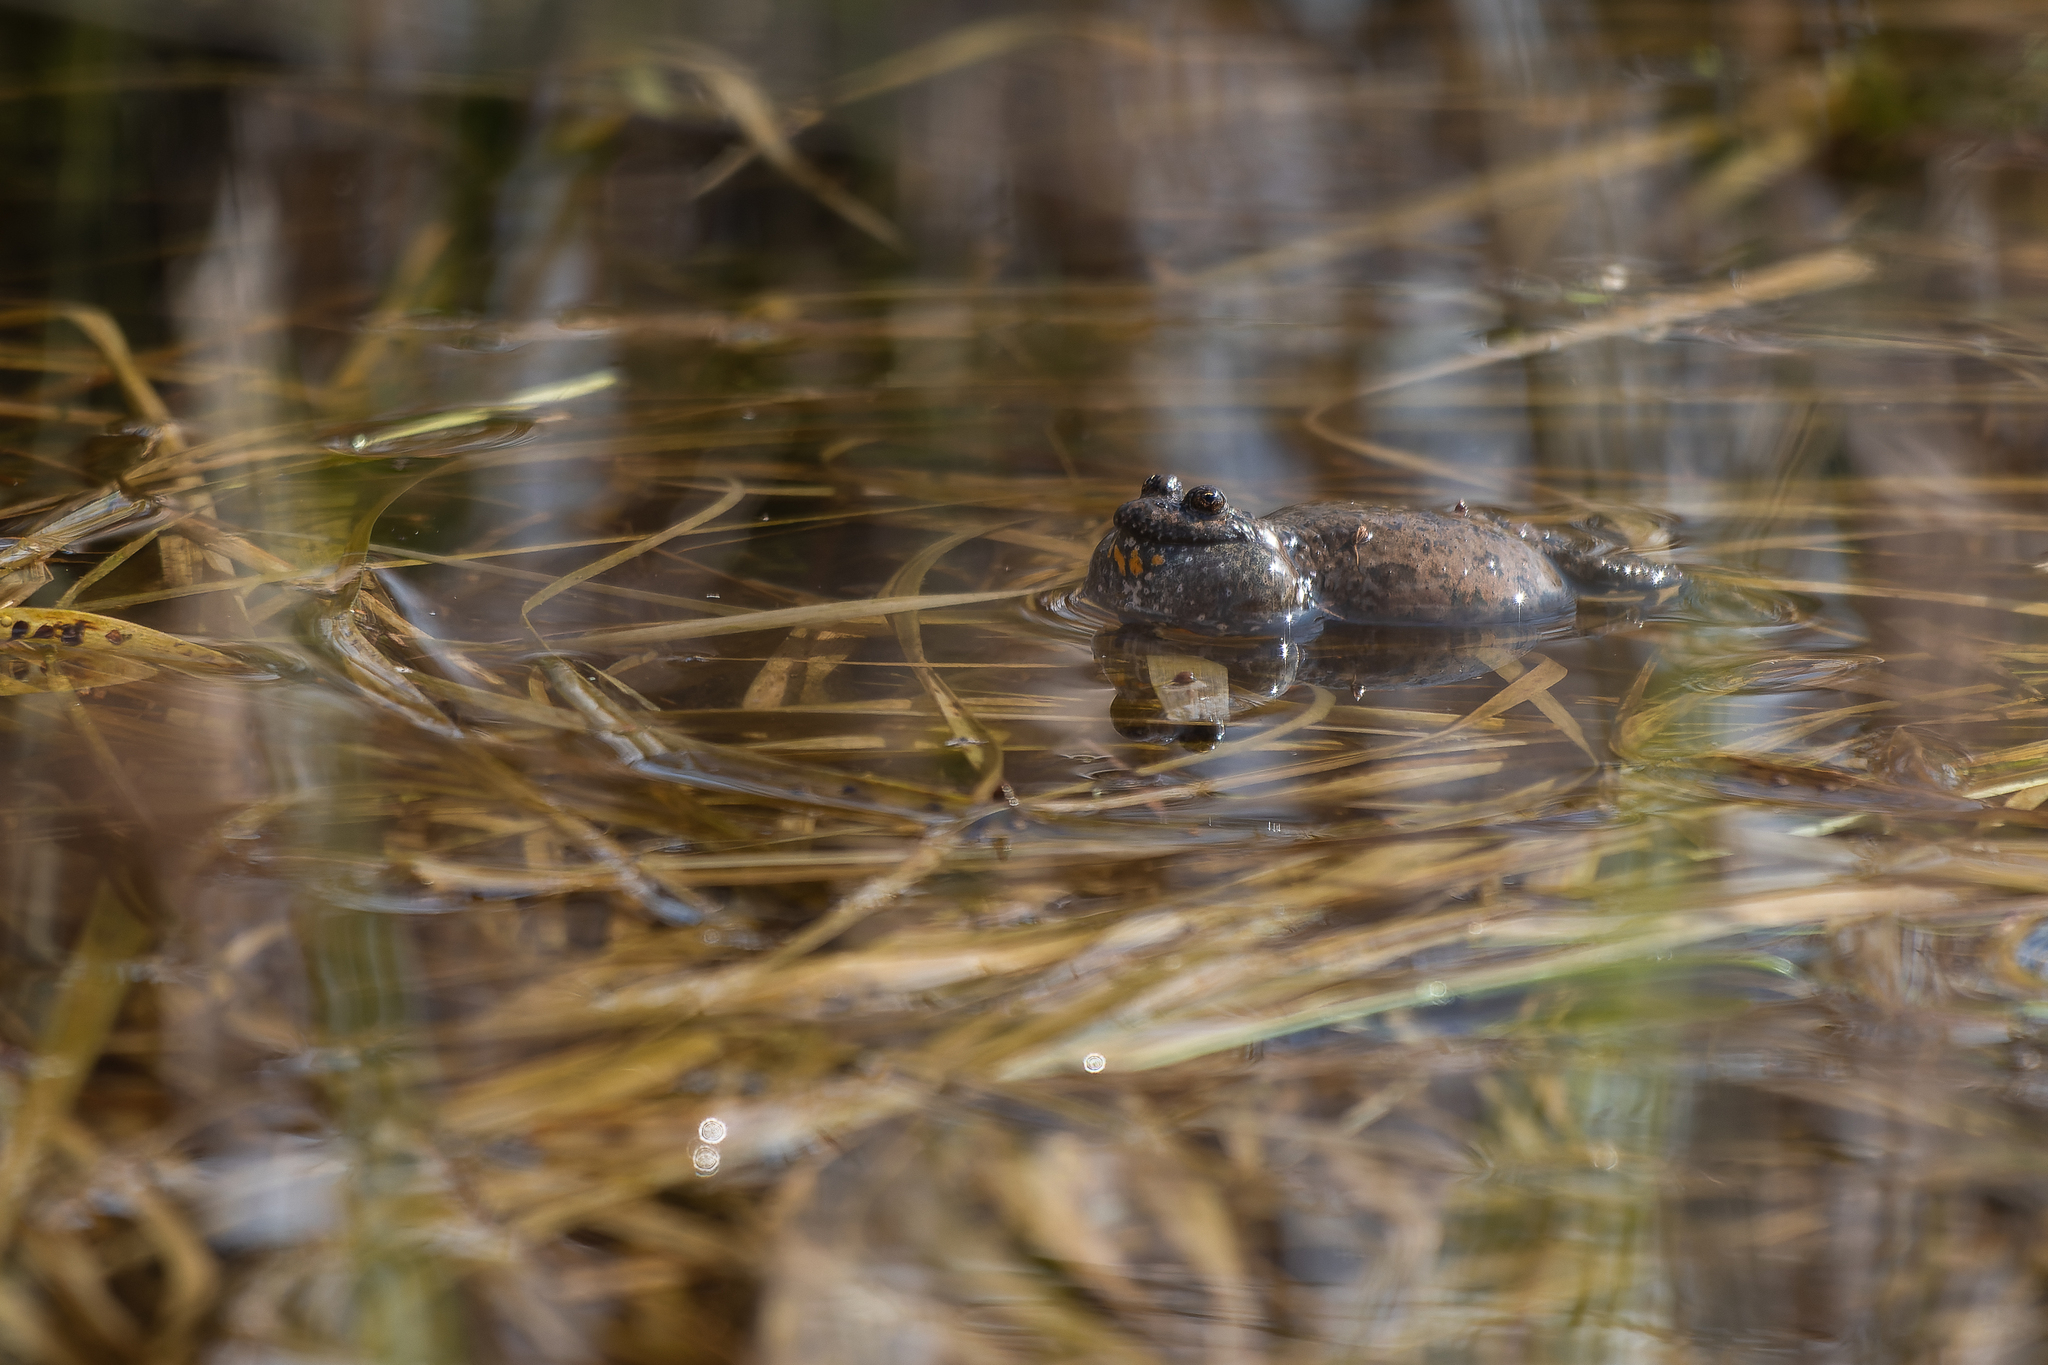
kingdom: Animalia
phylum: Chordata
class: Amphibia
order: Anura
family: Bombinatoridae
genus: Bombina
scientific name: Bombina bombina
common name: Fire-bellied toad
